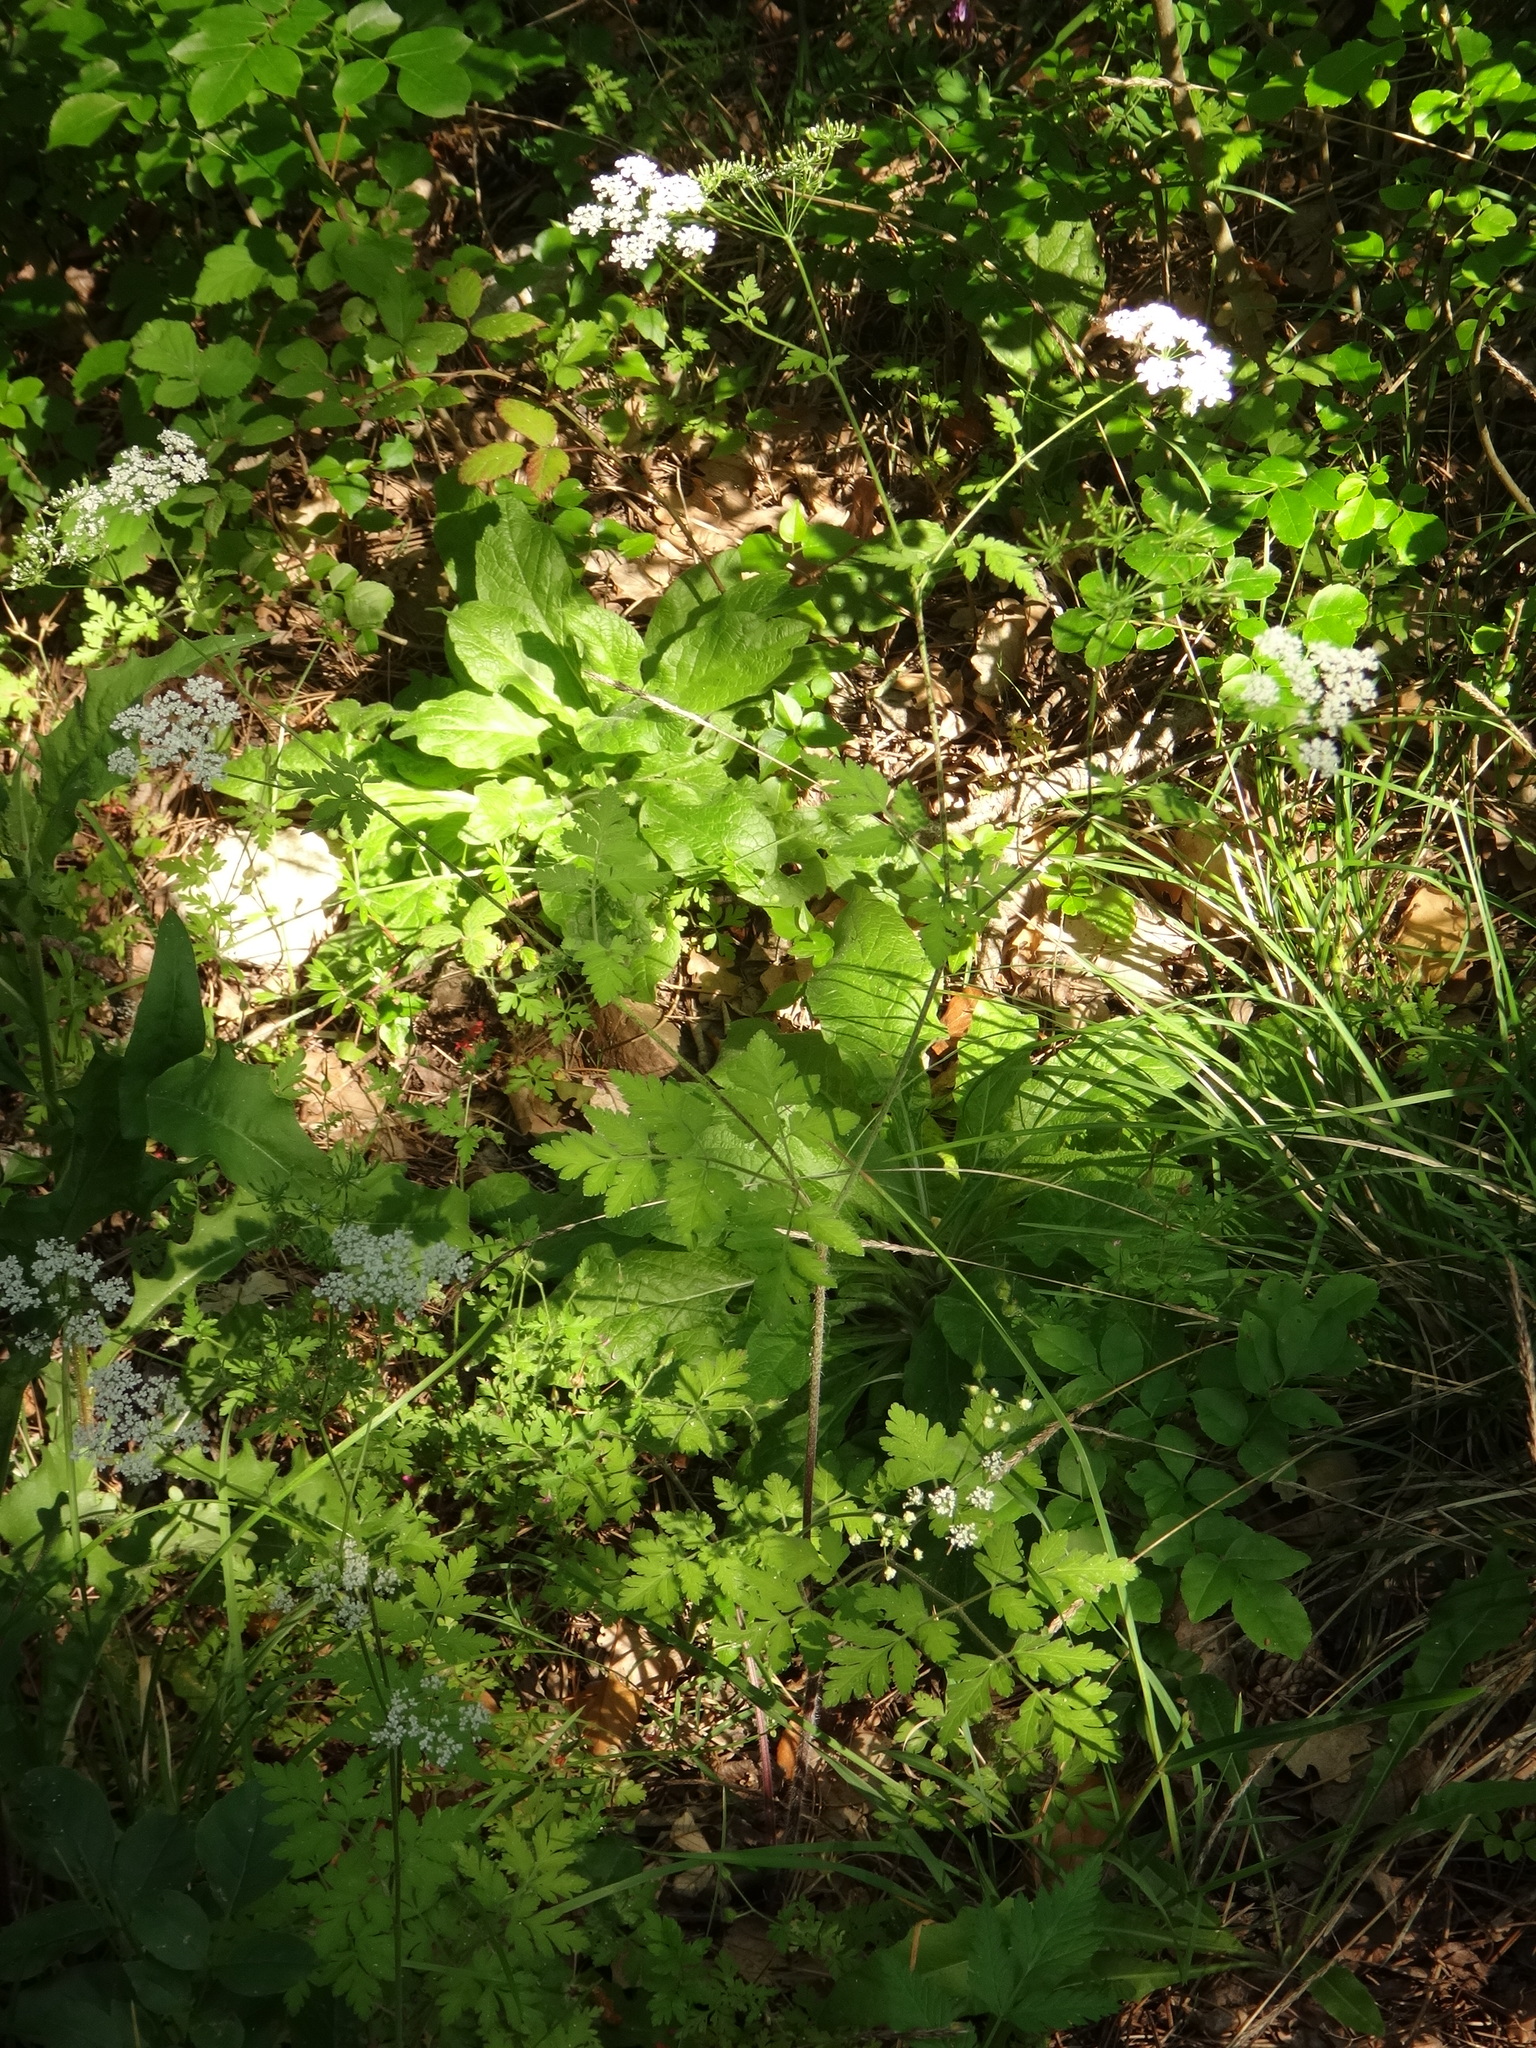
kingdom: Plantae
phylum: Tracheophyta
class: Magnoliopsida
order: Apiales
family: Apiaceae
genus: Chaerophyllum
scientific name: Chaerophyllum temulum
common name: Rough chervil
